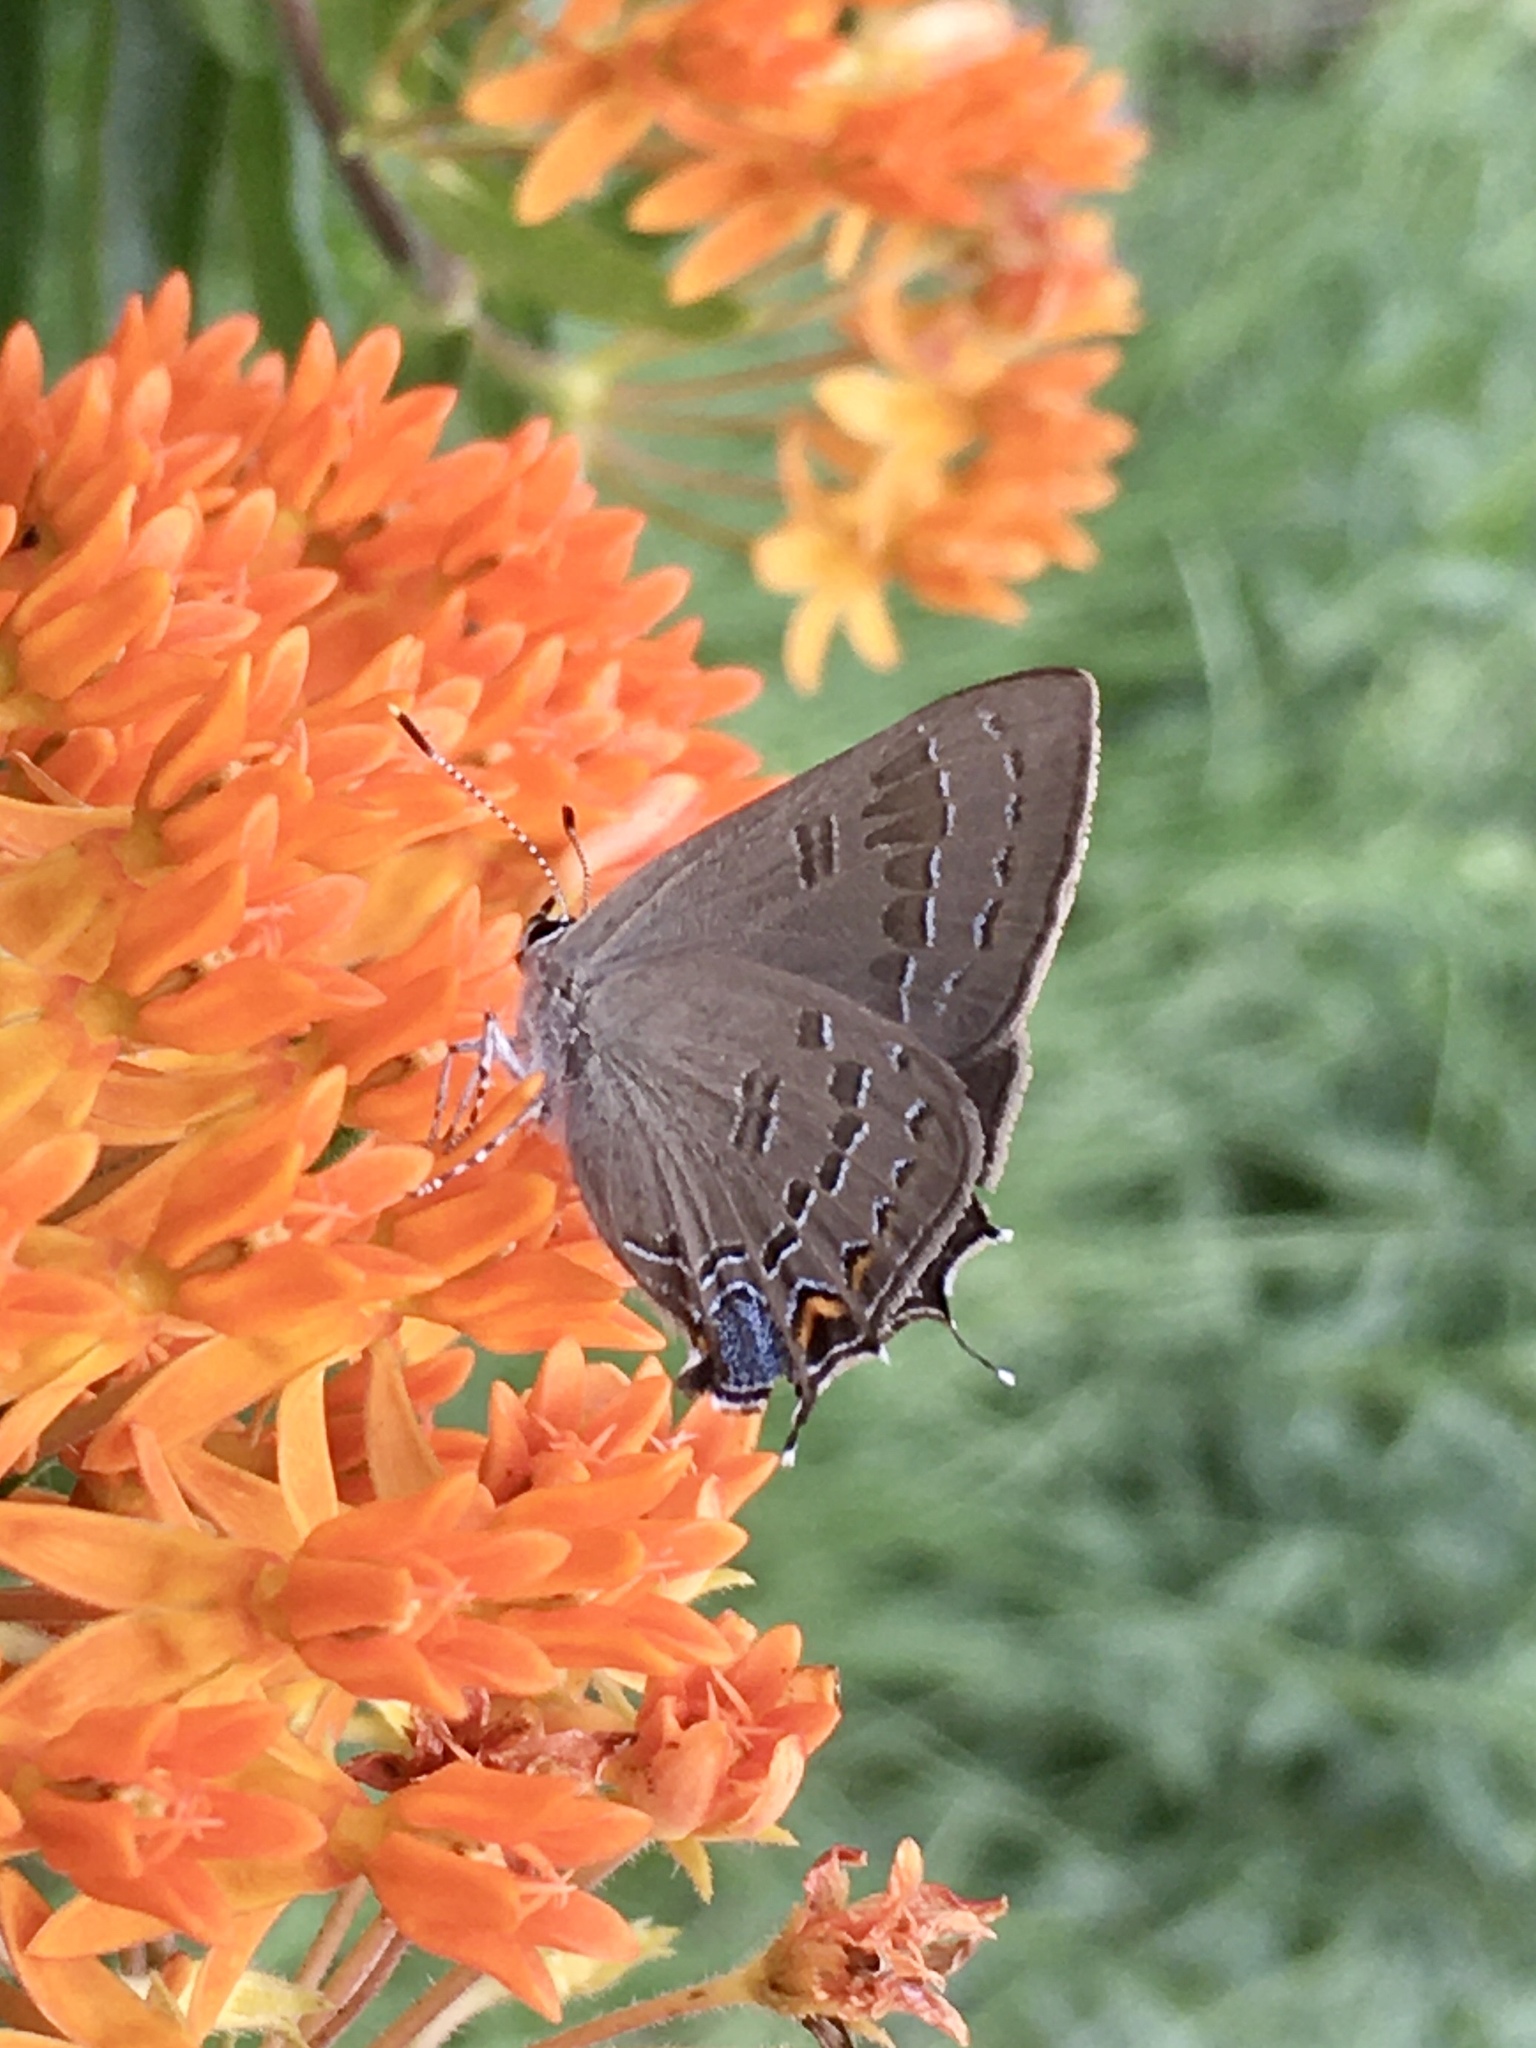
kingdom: Animalia
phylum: Arthropoda
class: Insecta
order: Lepidoptera
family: Lycaenidae
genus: Satyrium
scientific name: Satyrium calanus
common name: Banded hairstreak
